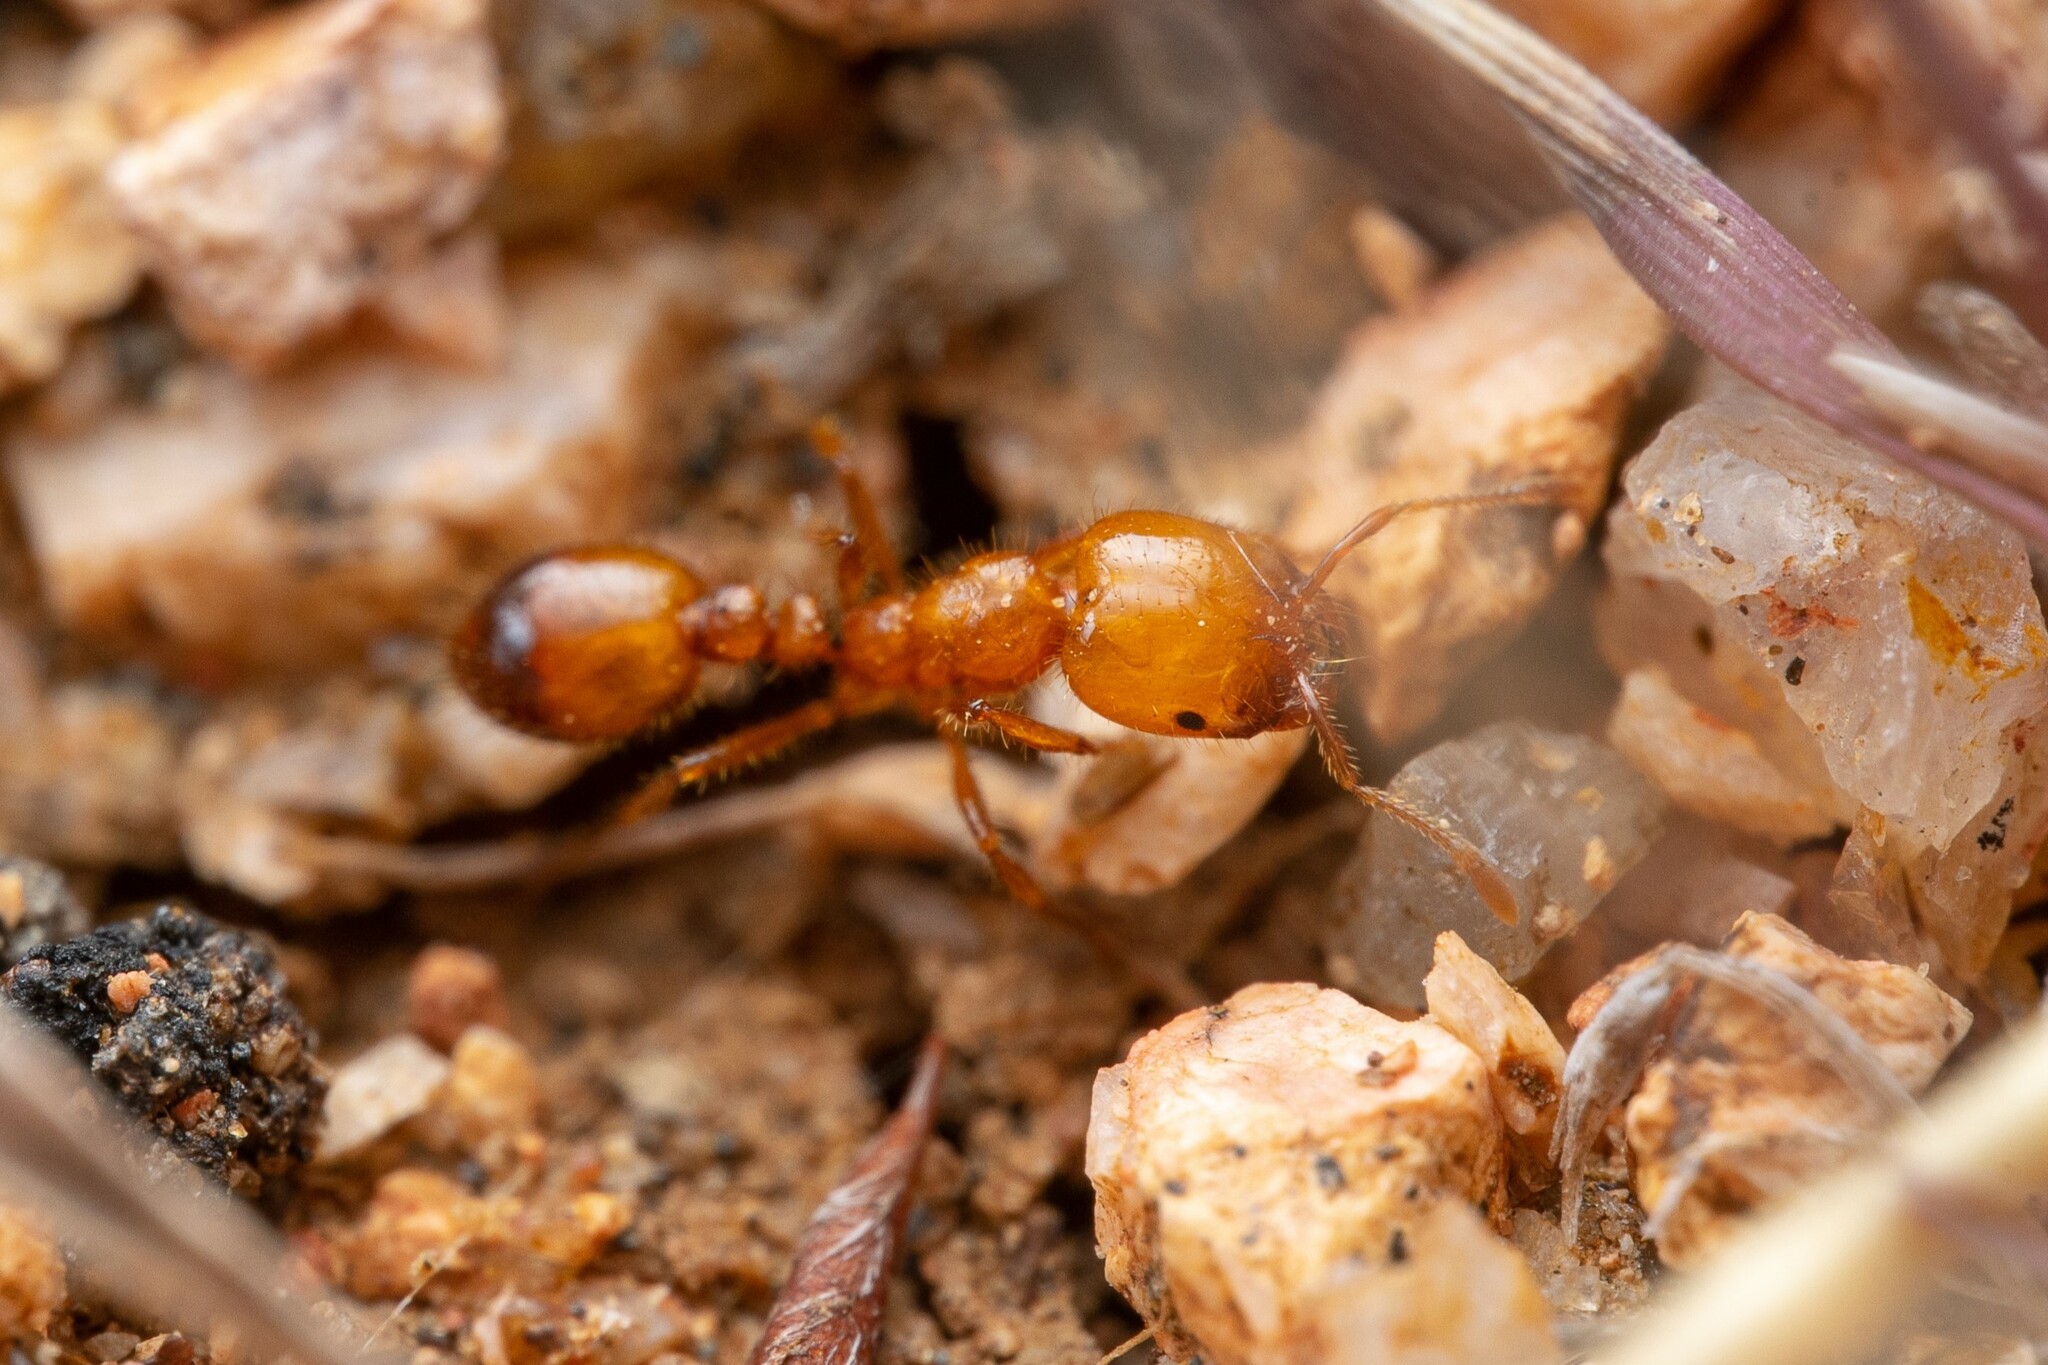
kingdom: Animalia
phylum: Arthropoda
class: Insecta
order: Hymenoptera
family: Formicidae
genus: Solenopsis
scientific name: Solenopsis aurea
